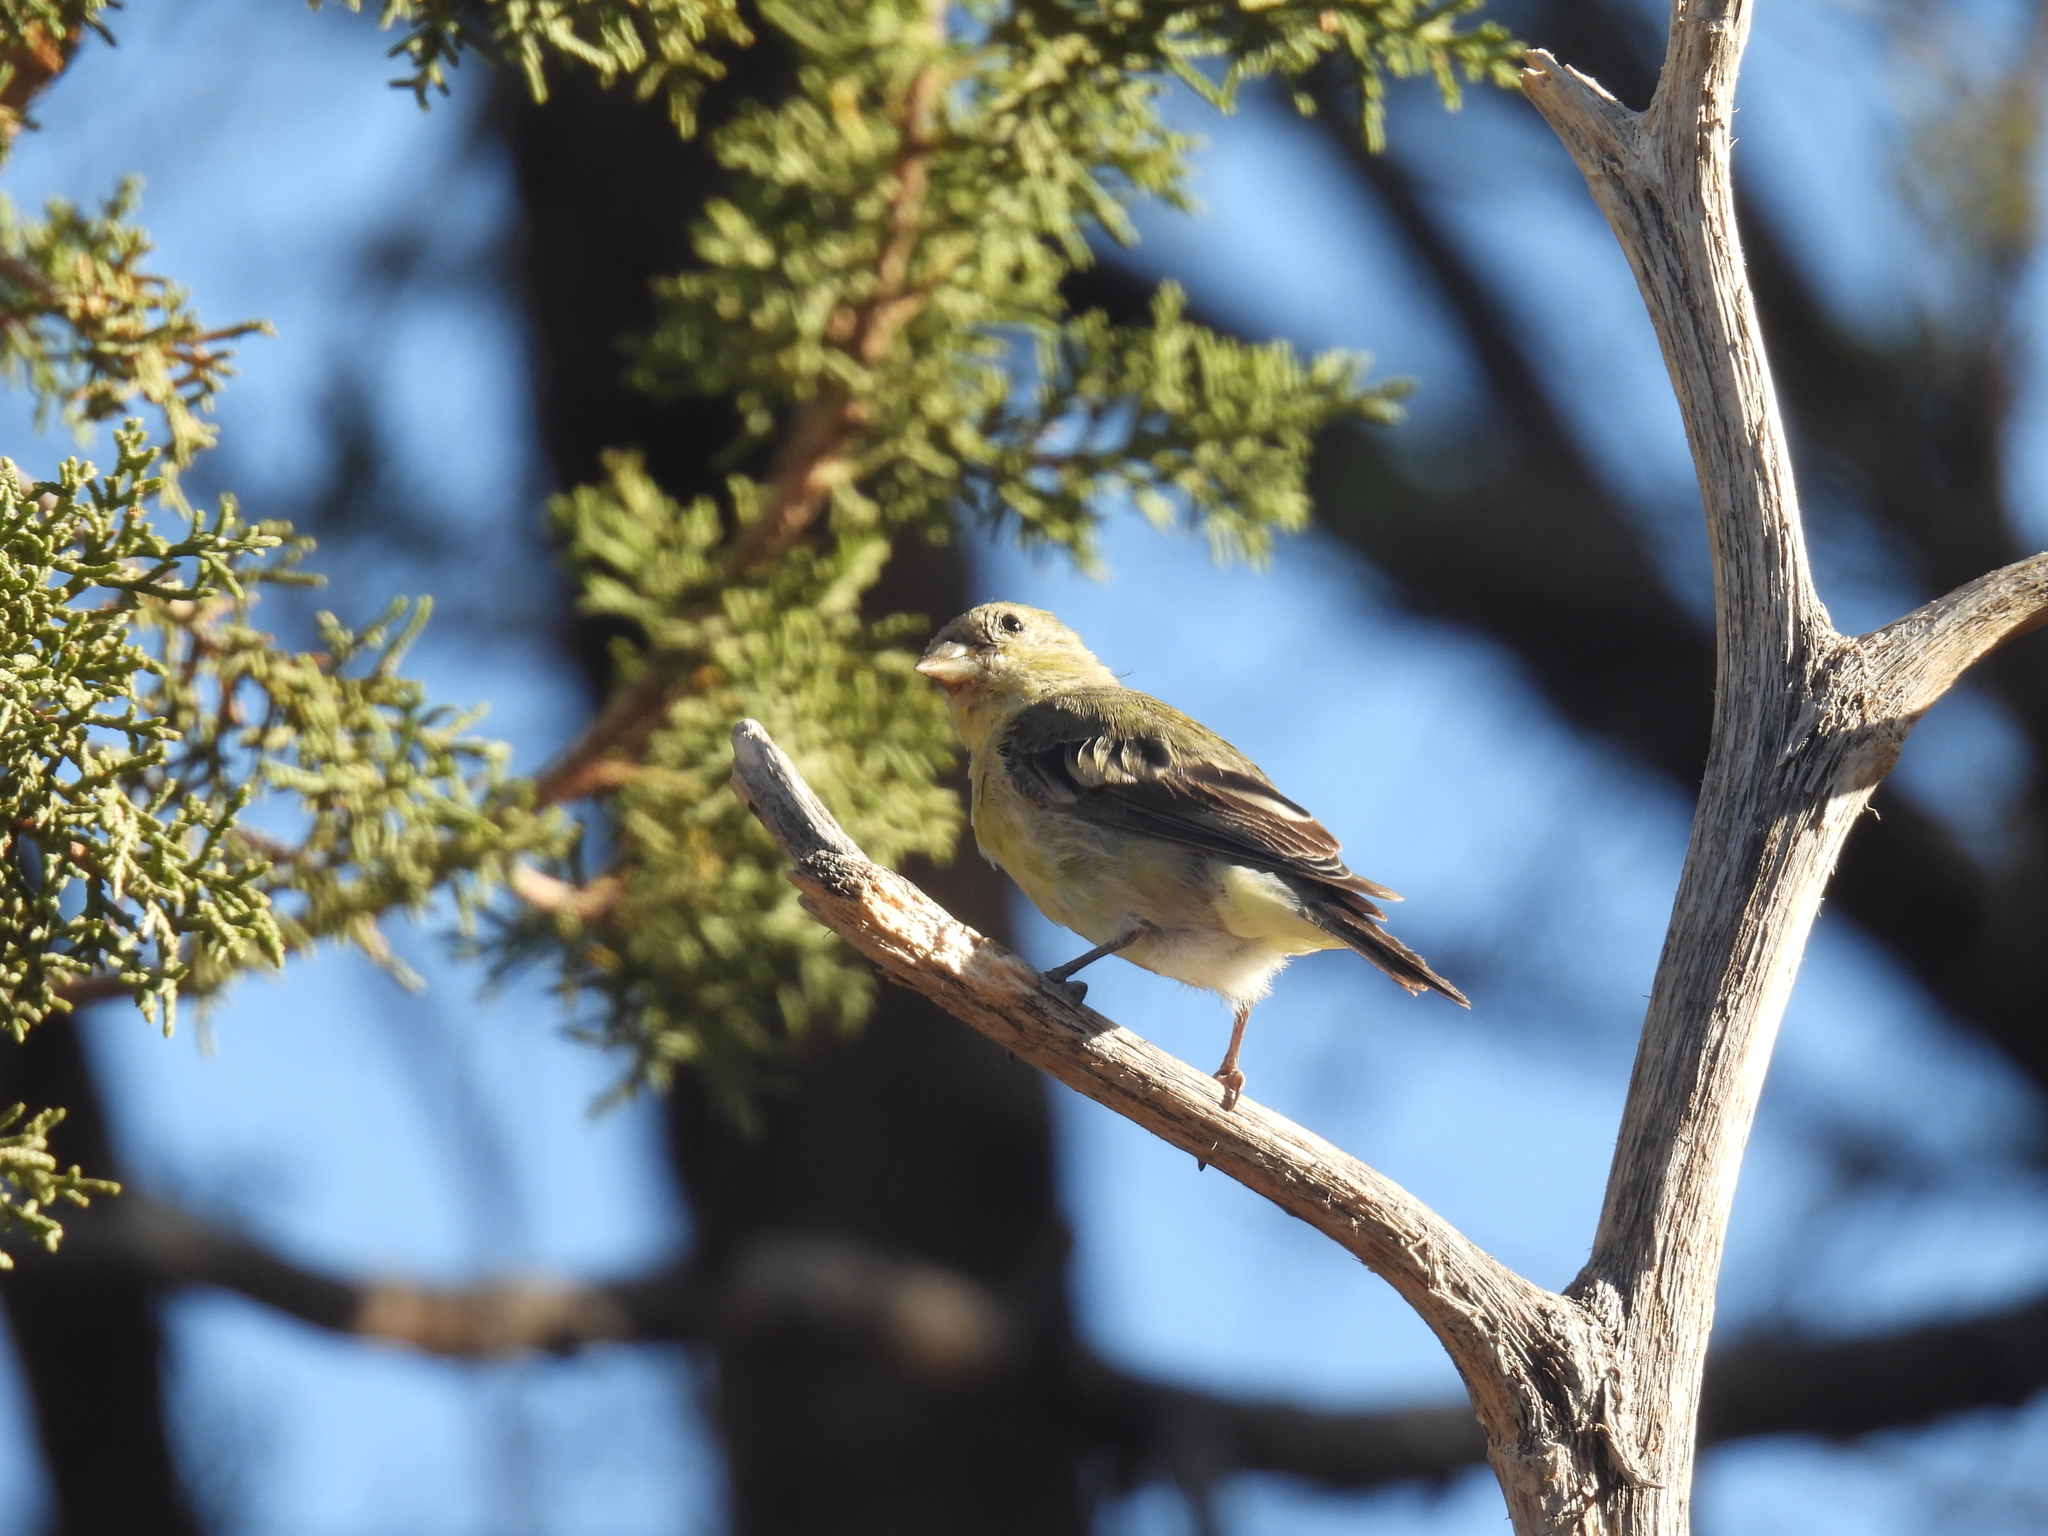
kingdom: Animalia
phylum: Chordata
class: Aves
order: Passeriformes
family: Fringillidae
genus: Spinus
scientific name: Spinus psaltria
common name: Lesser goldfinch
